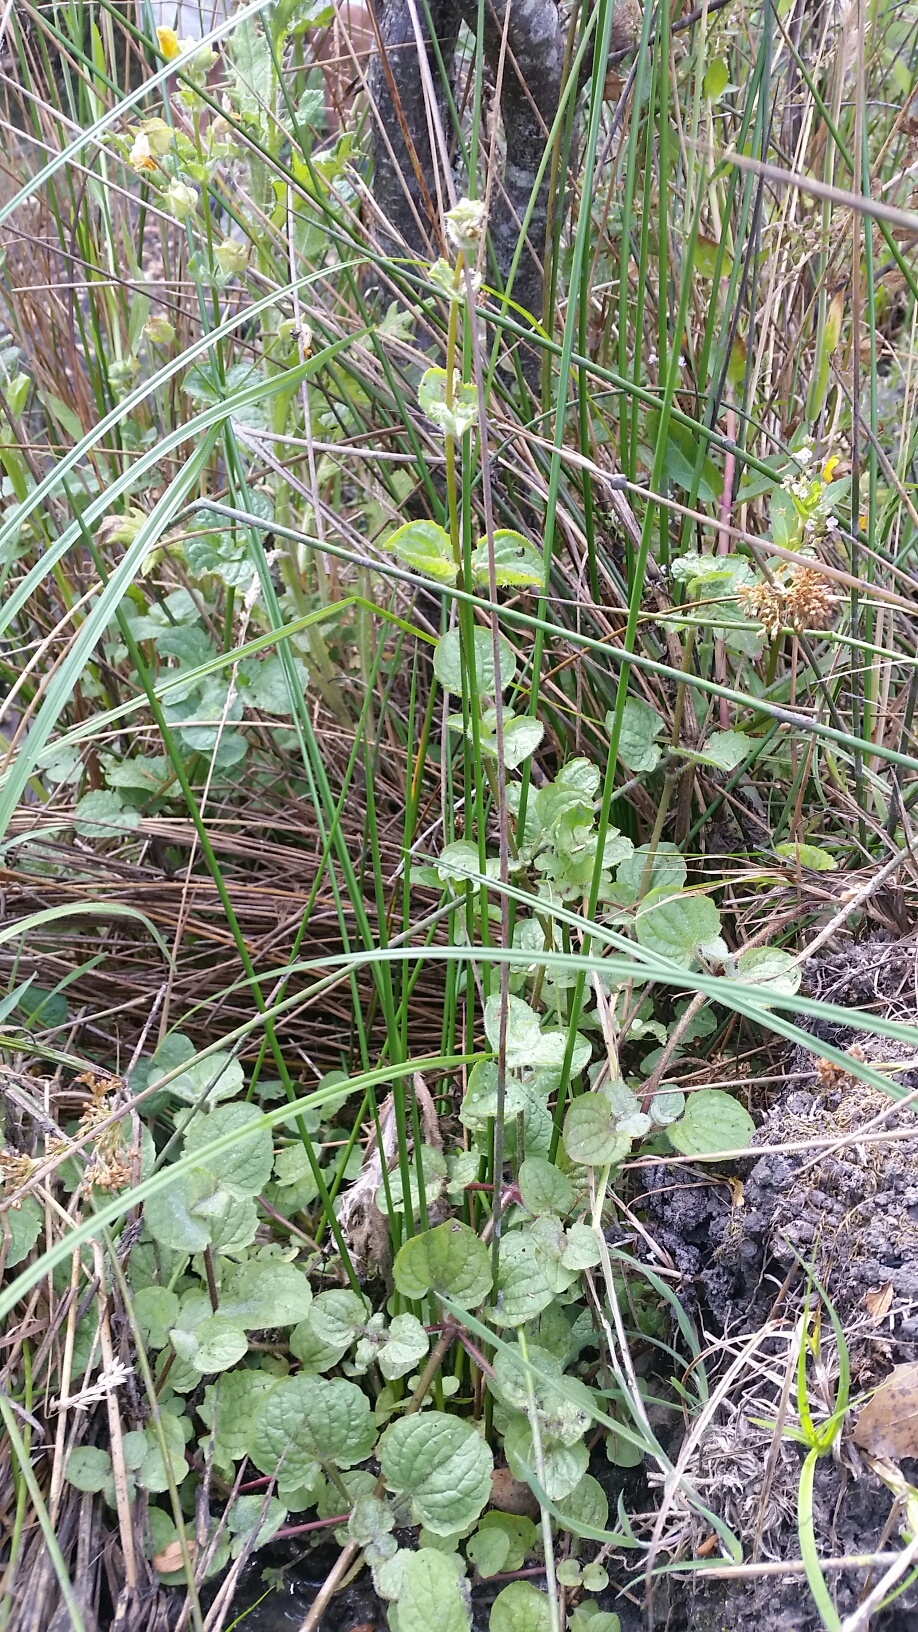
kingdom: Plantae
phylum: Tracheophyta
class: Magnoliopsida
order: Lamiales
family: Phrymaceae
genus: Erythranthe
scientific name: Erythranthe guttata
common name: Monkeyflower
